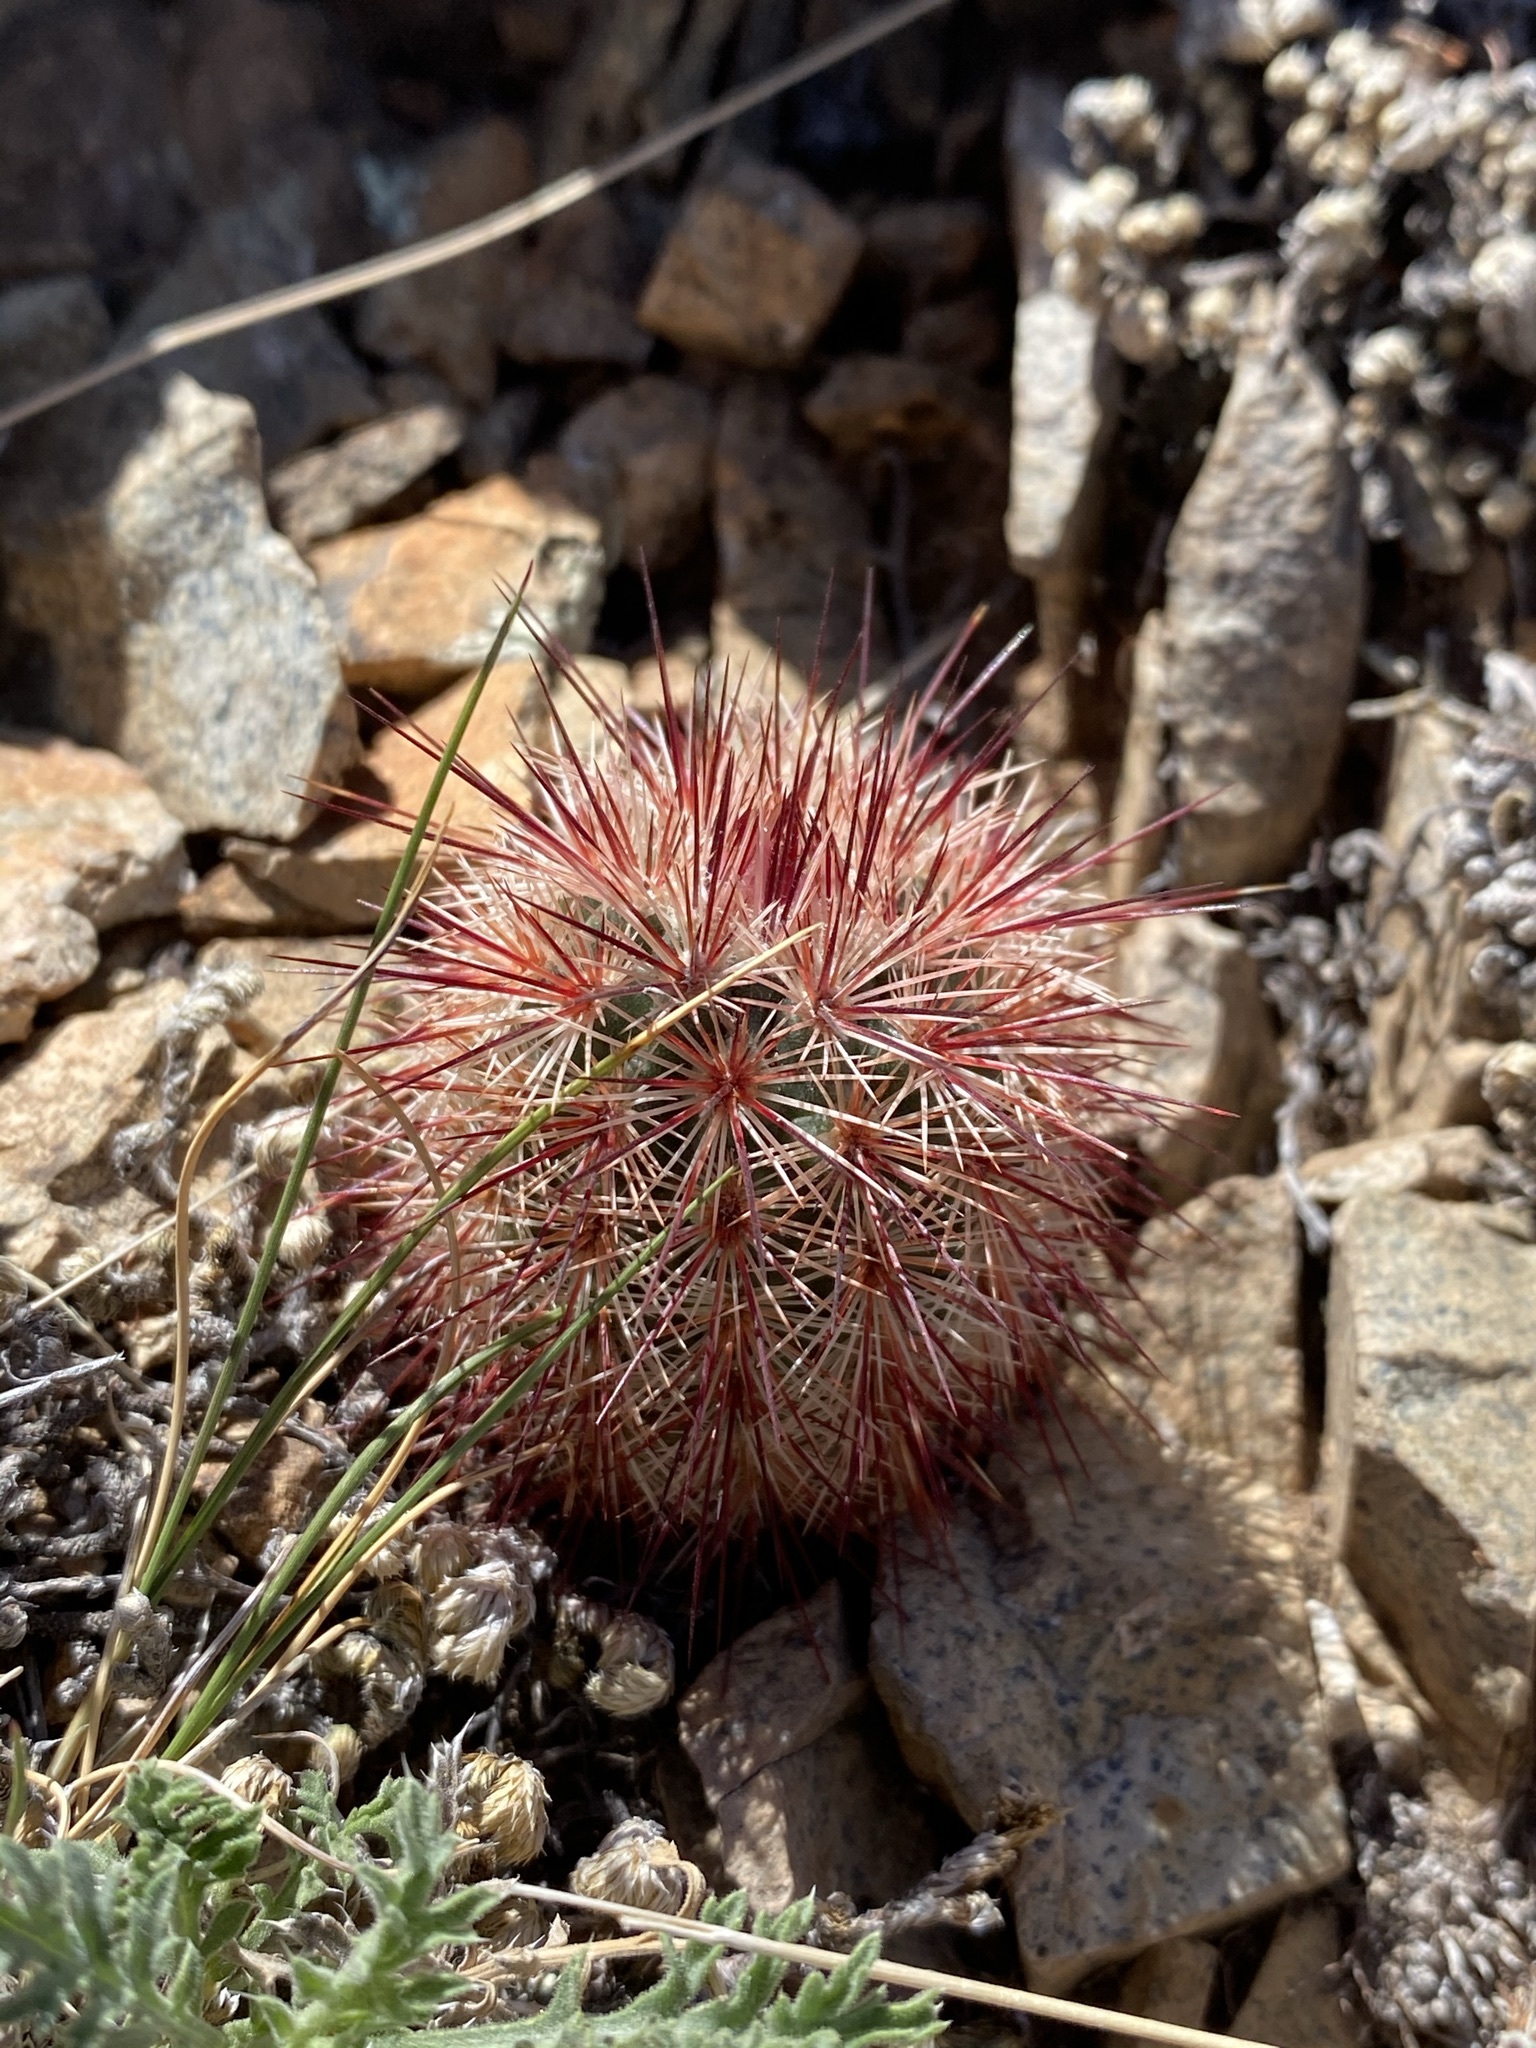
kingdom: Plantae
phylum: Tracheophyta
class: Magnoliopsida
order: Caryophyllales
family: Cactaceae
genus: Echinocereus
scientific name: Echinocereus russanthus
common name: Brownspine hedgehog cactus
